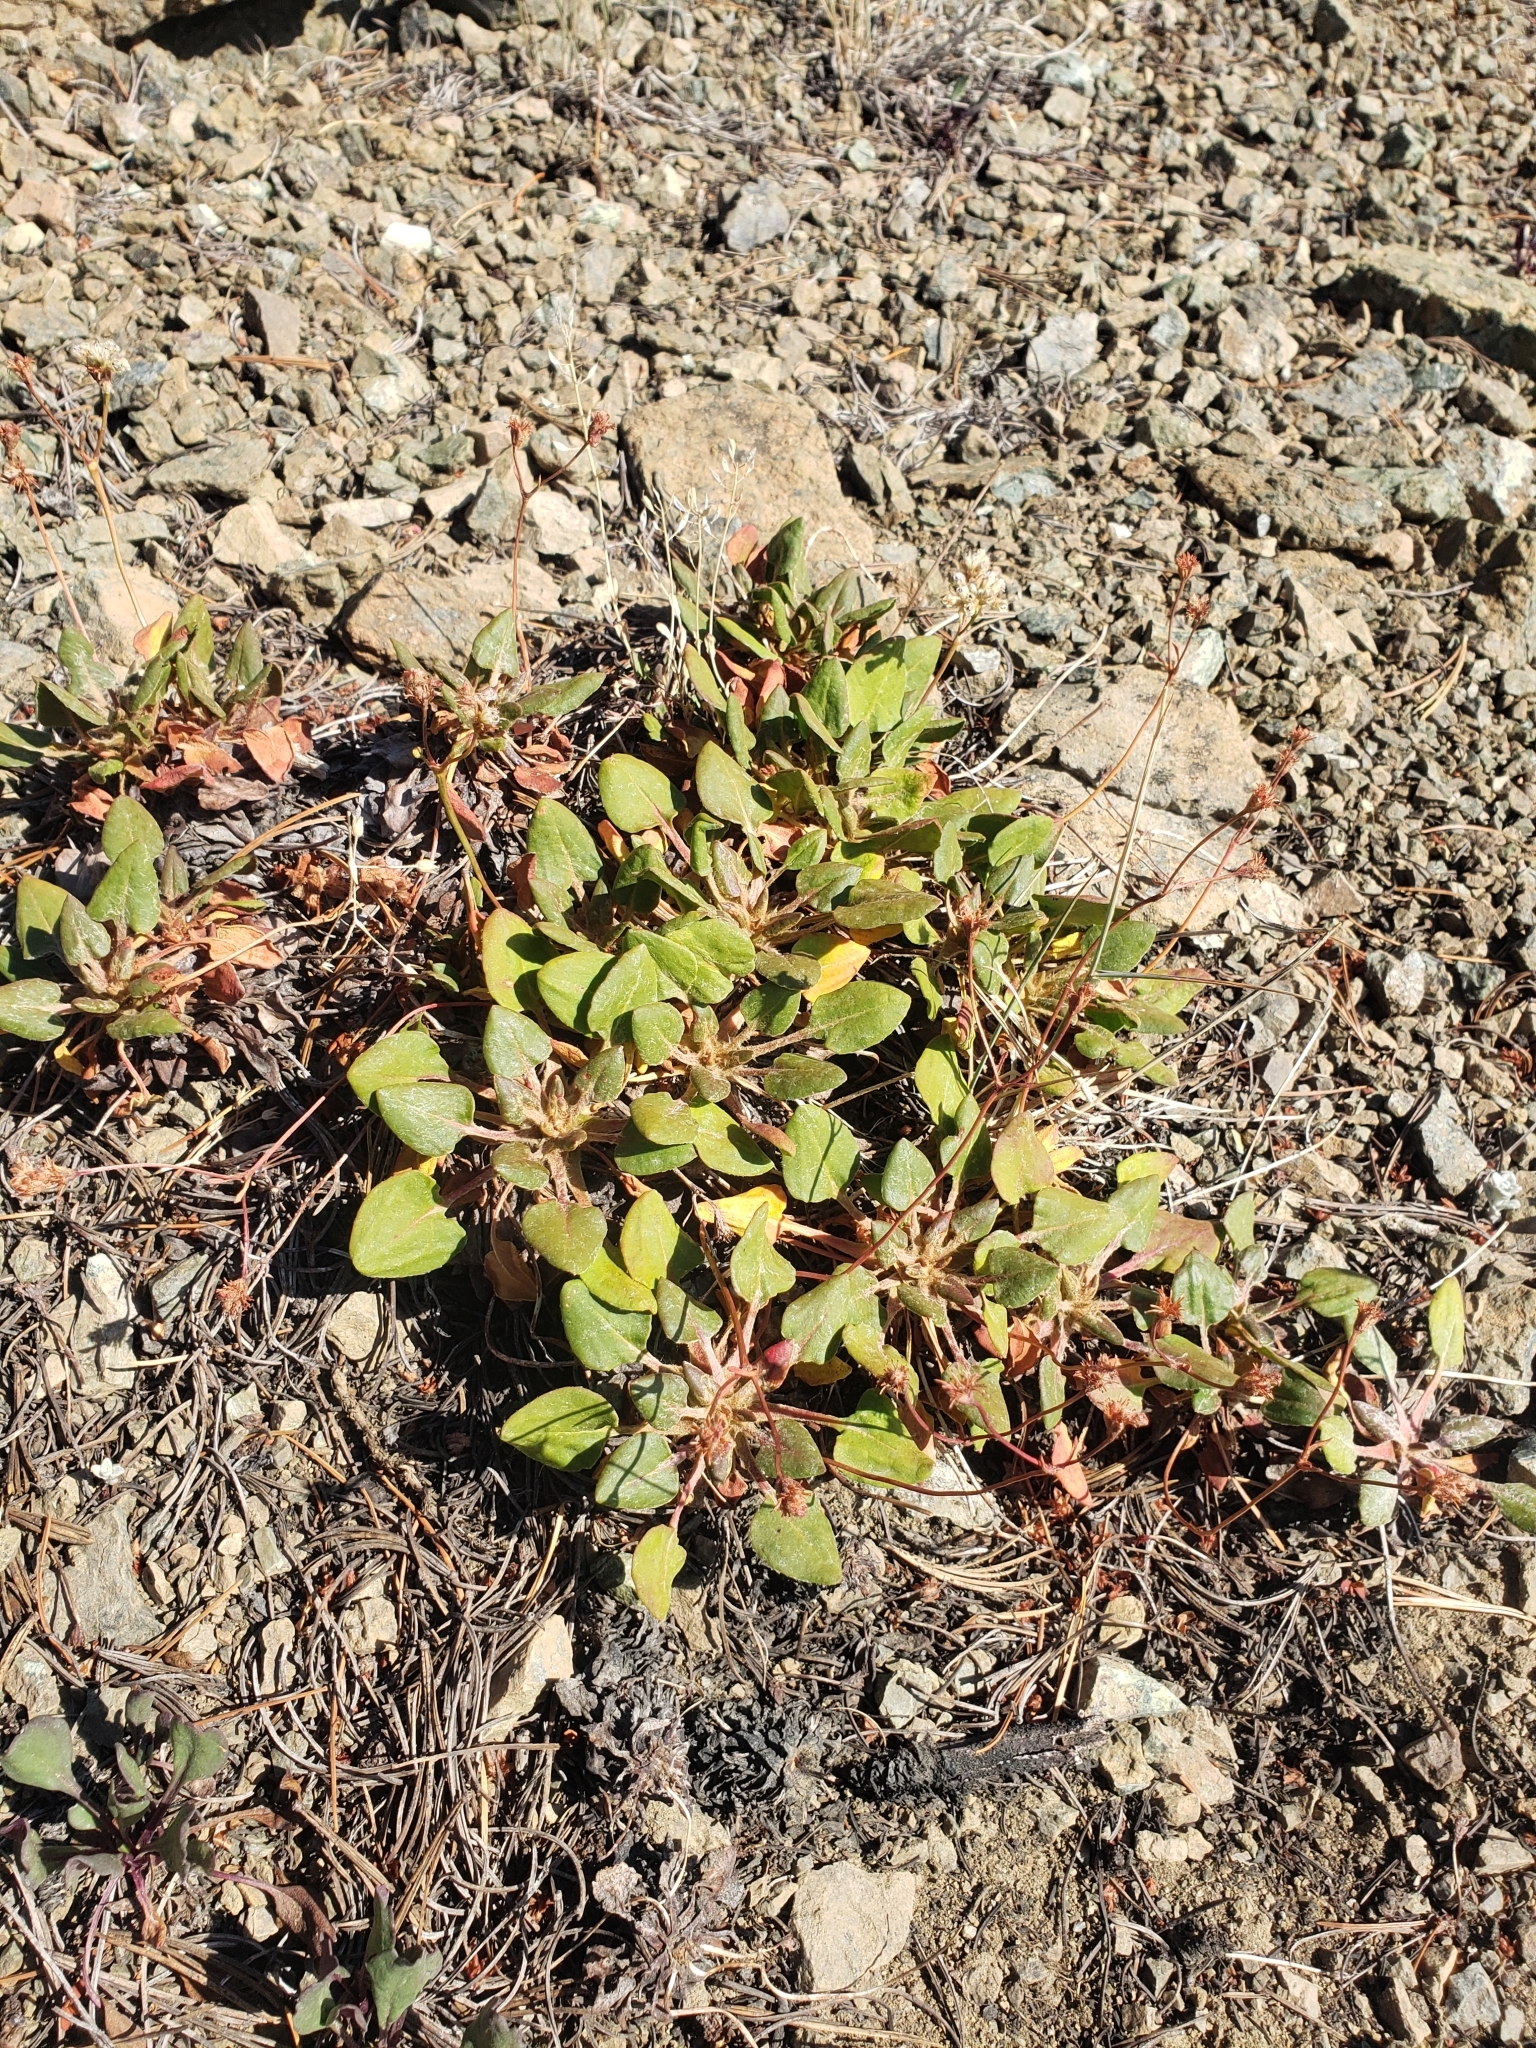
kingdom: Plantae
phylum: Tracheophyta
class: Magnoliopsida
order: Caryophyllales
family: Polygonaceae
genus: Eriogonum
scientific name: Eriogonum pyrolifolium
